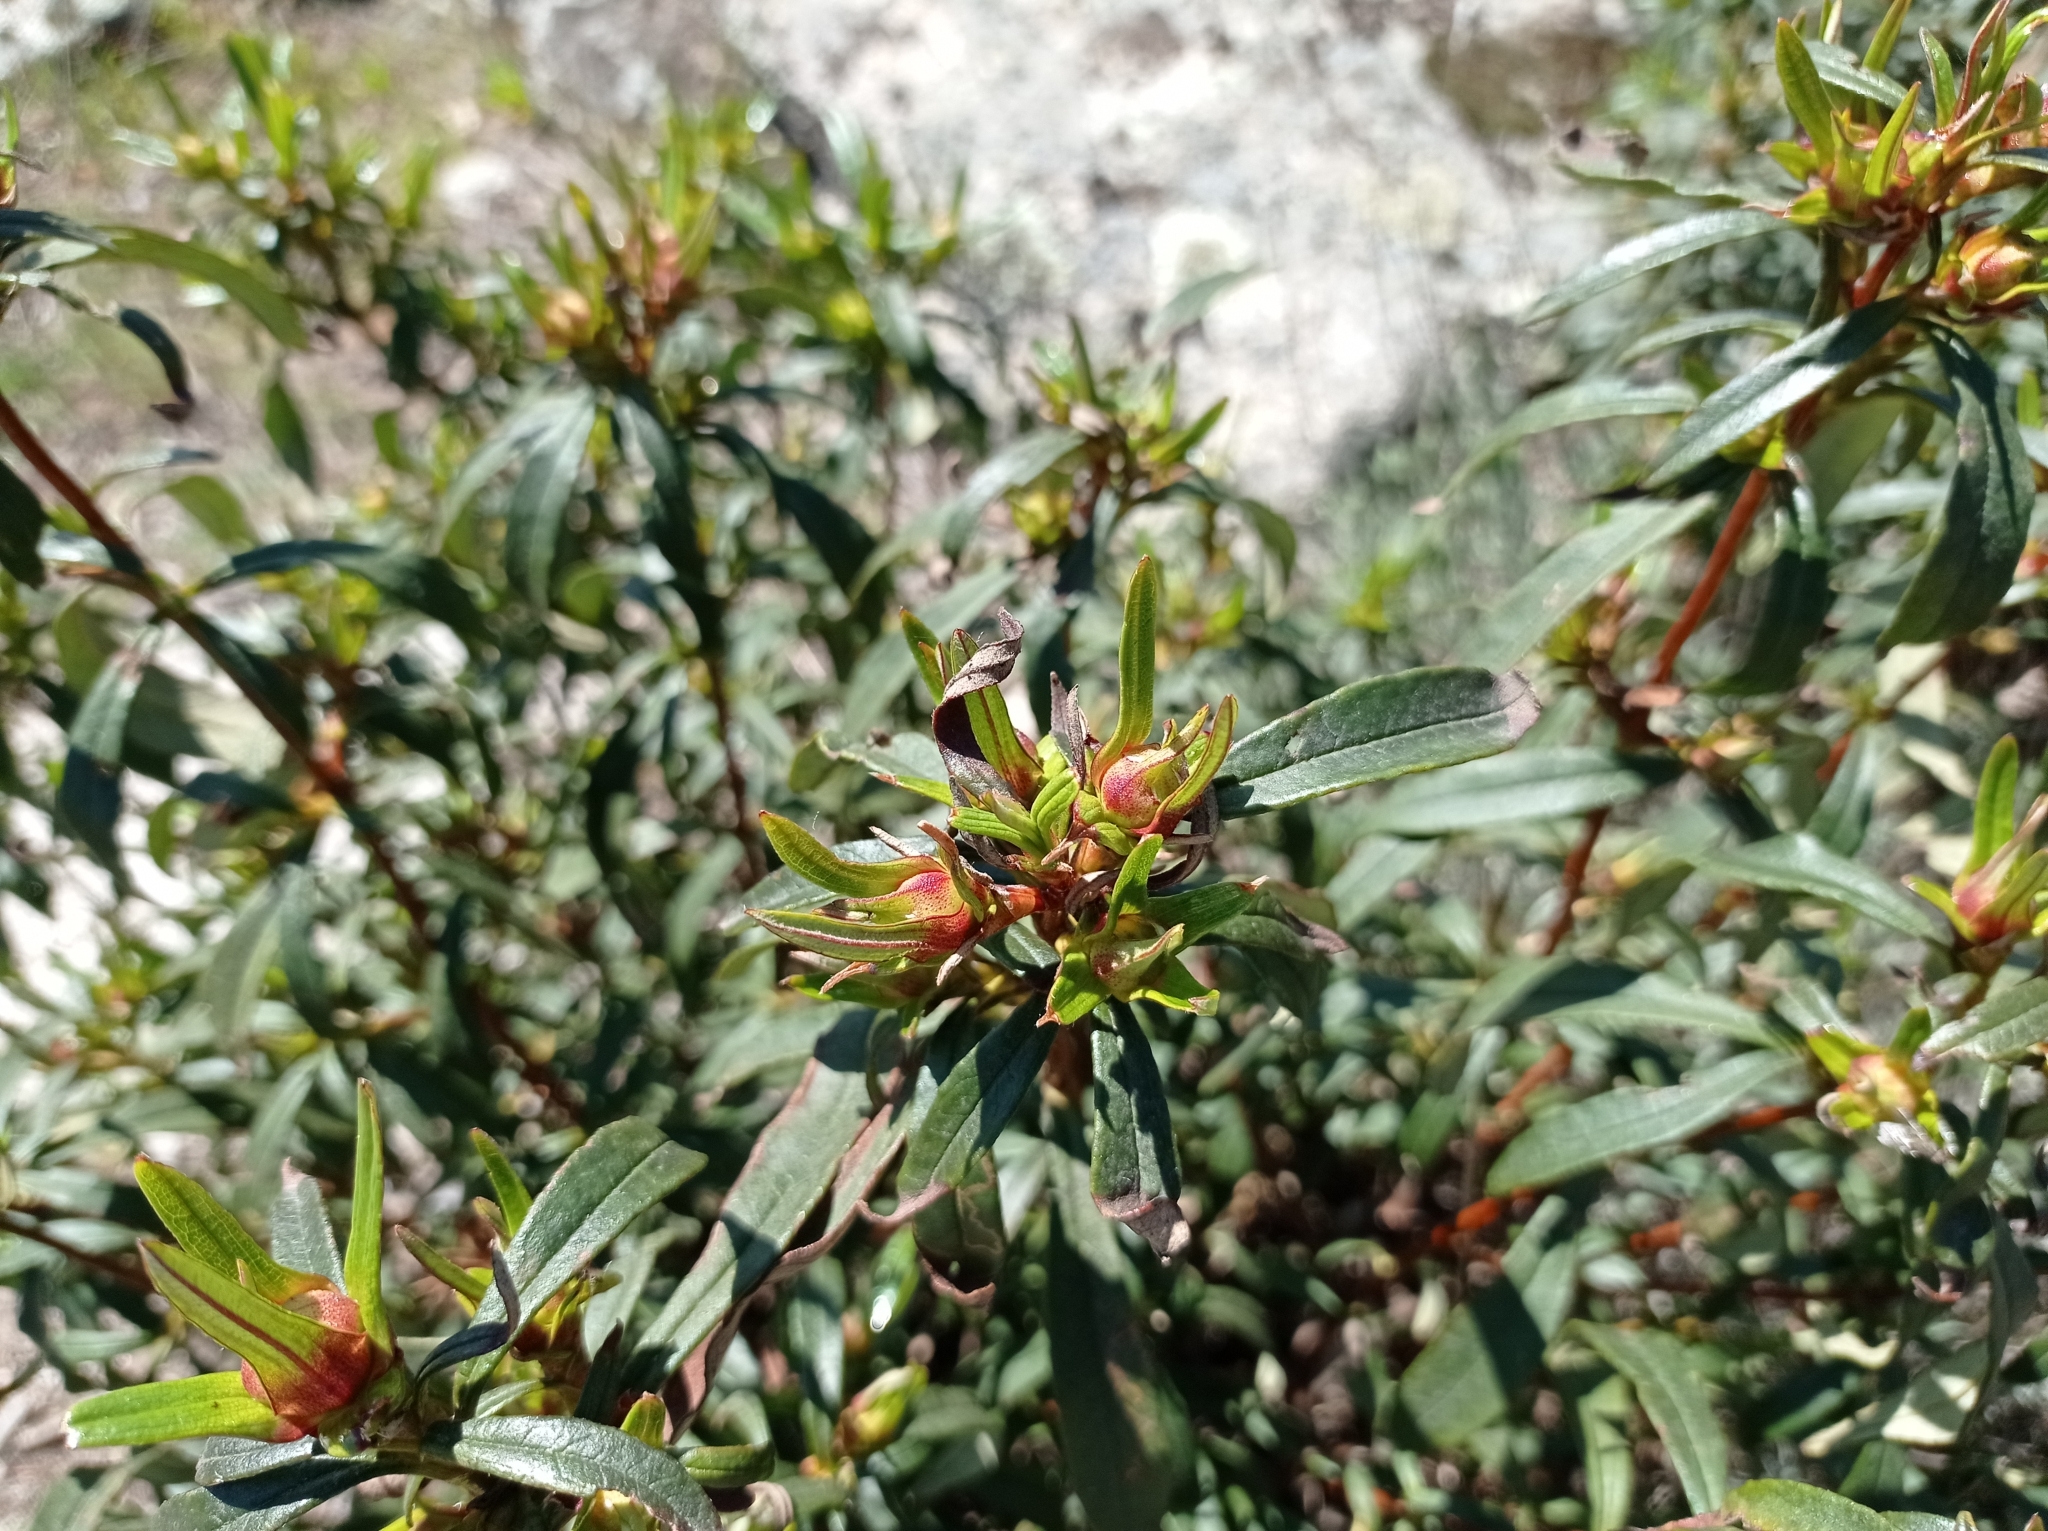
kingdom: Plantae
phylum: Tracheophyta
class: Magnoliopsida
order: Malvales
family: Cistaceae
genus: Cistus
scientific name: Cistus ladanifer
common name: Common gum cistus
